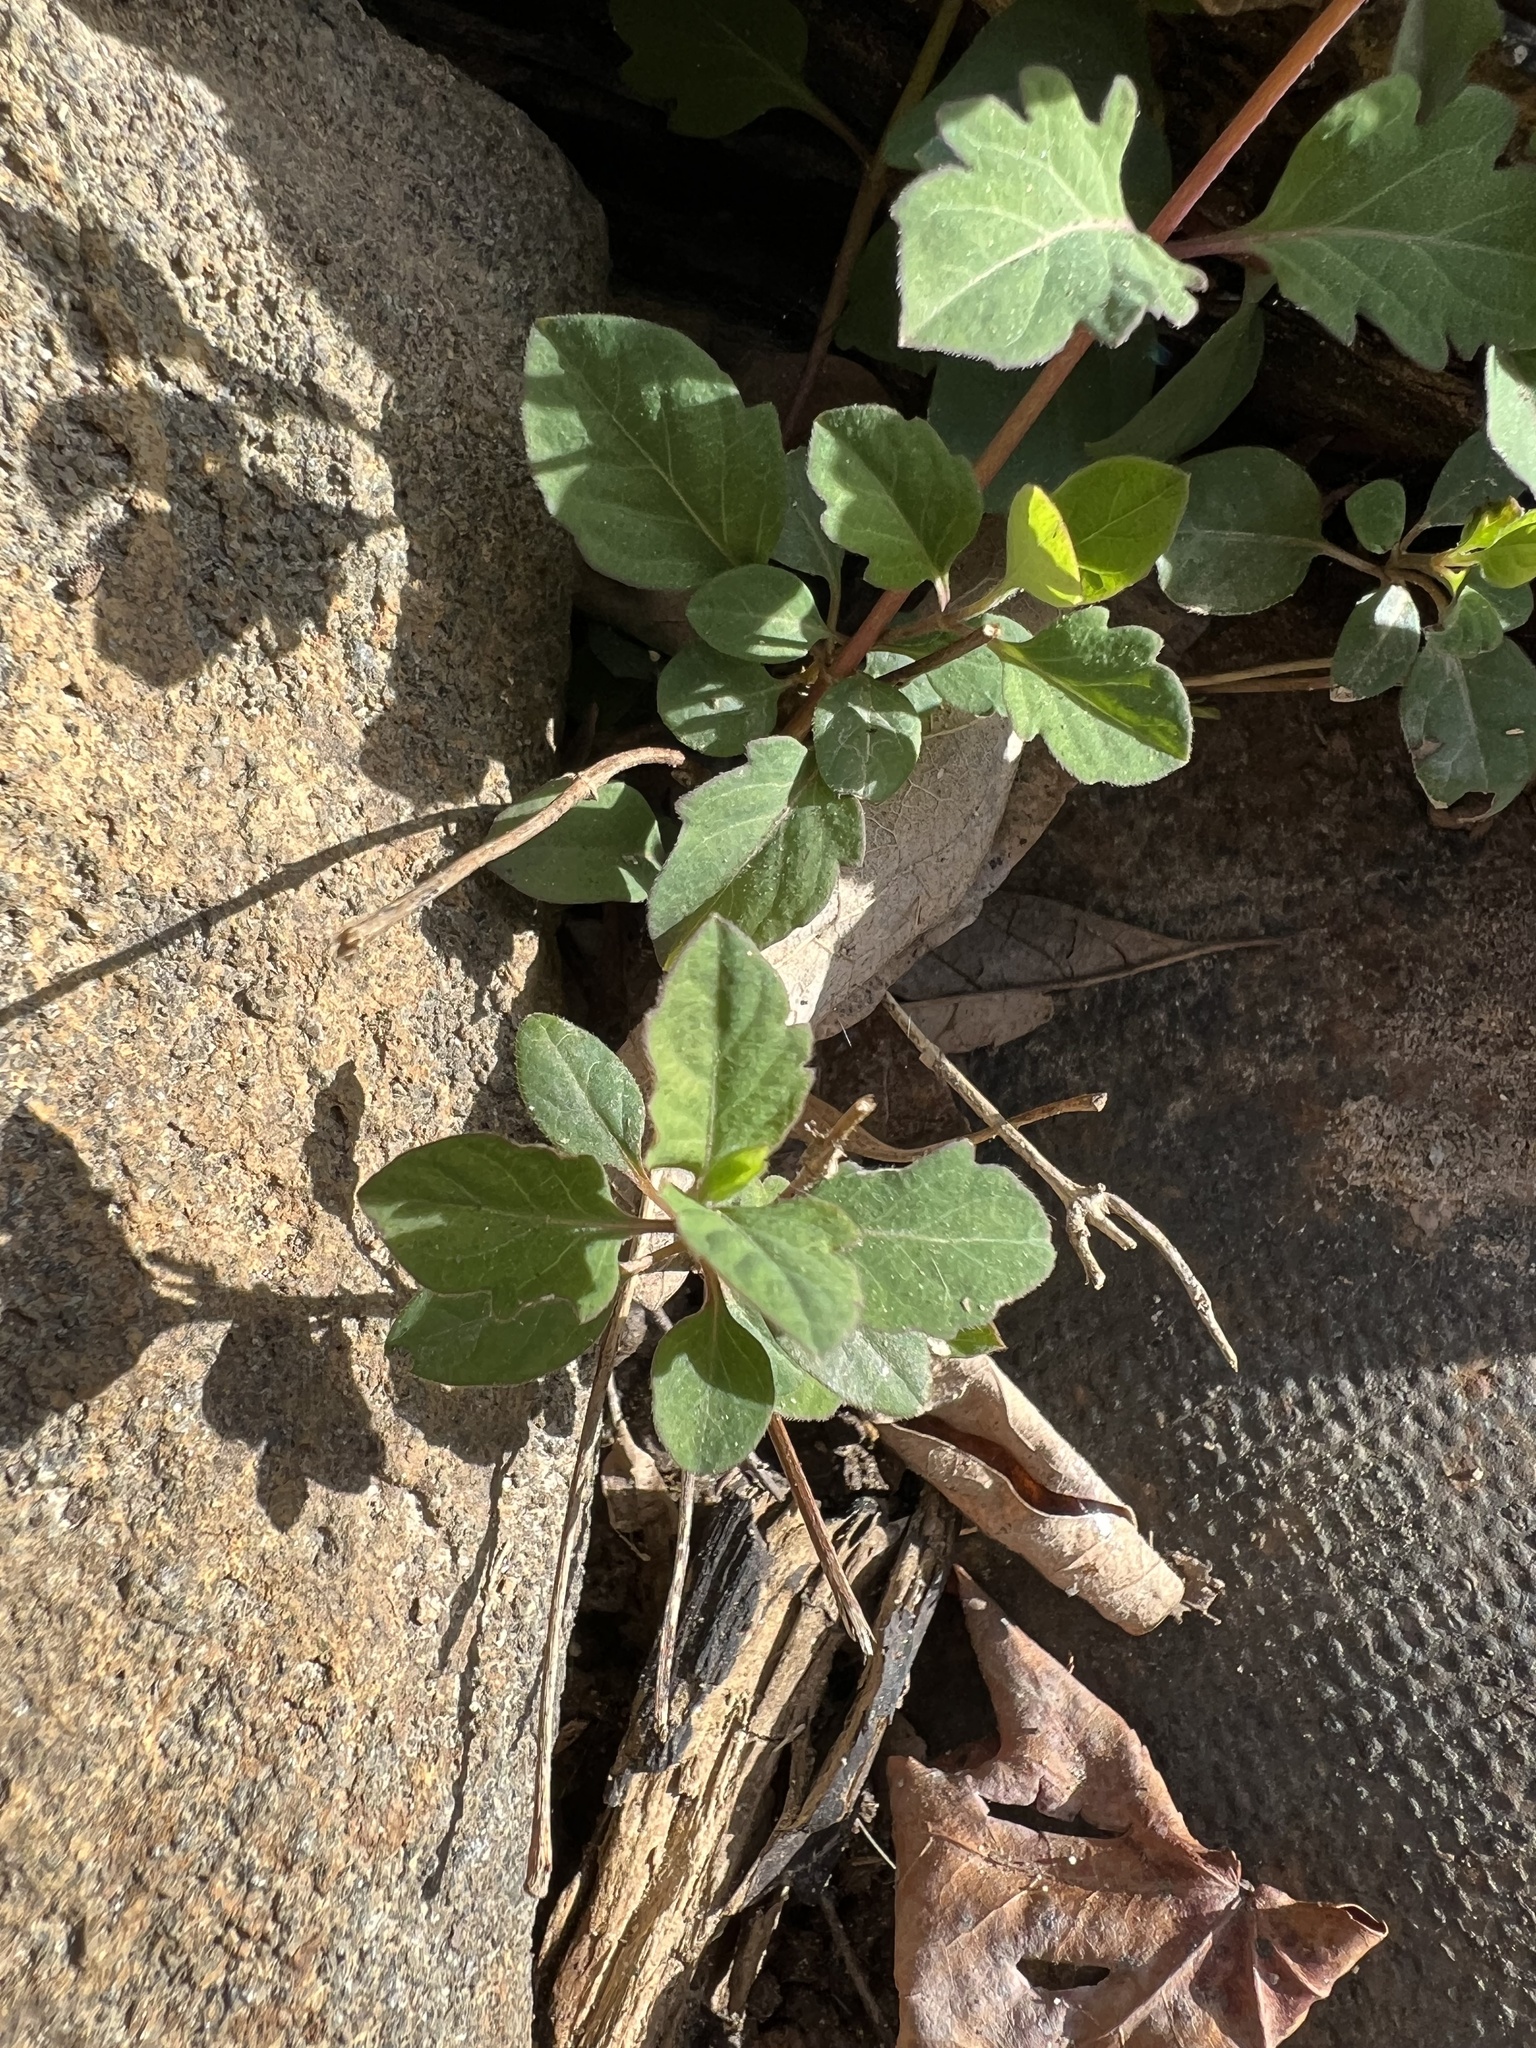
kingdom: Plantae
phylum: Tracheophyta
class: Magnoliopsida
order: Dipsacales
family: Caprifoliaceae
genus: Lonicera
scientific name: Lonicera japonica
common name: Japanese honeysuckle
